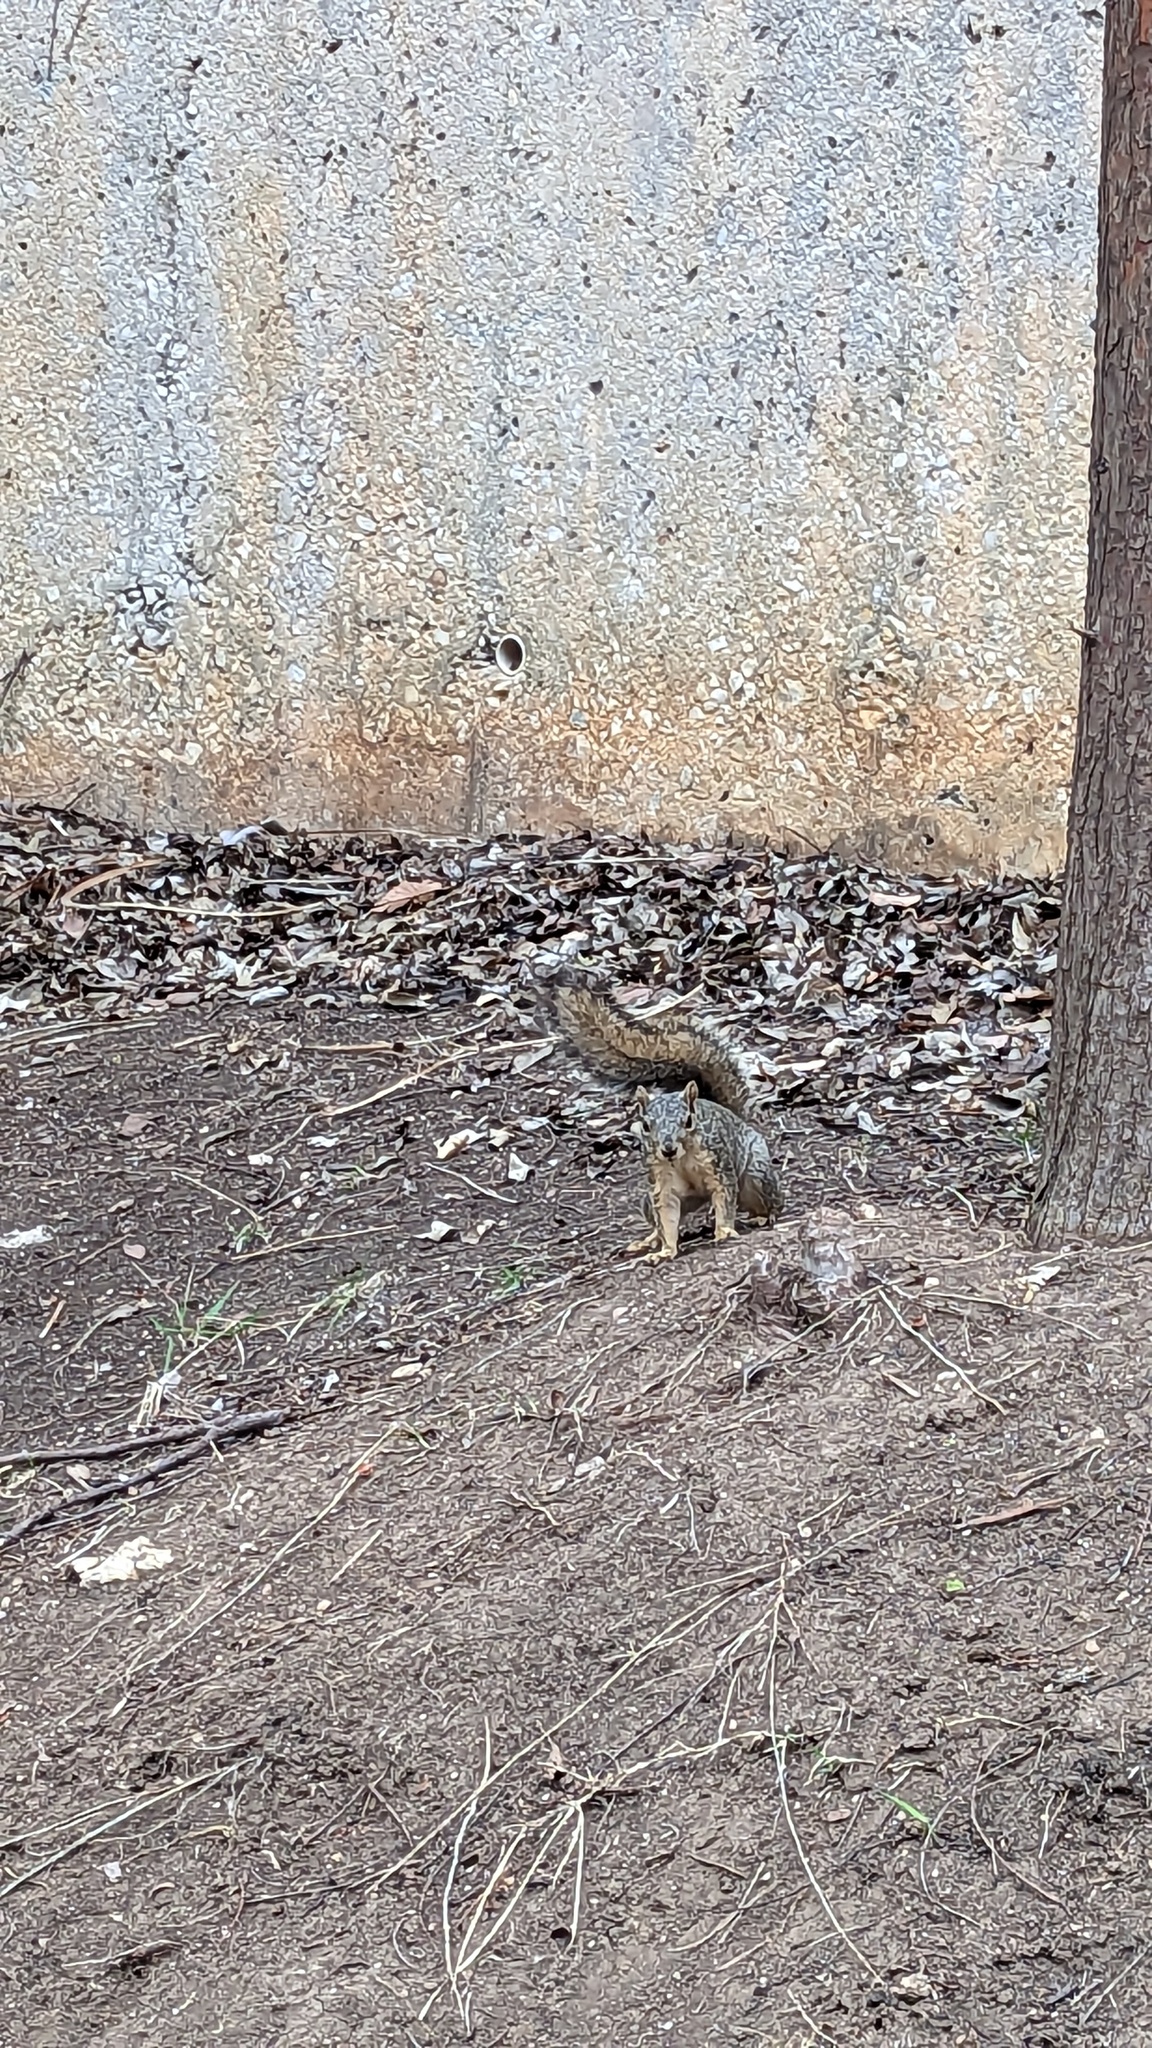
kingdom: Animalia
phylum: Chordata
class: Mammalia
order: Rodentia
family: Sciuridae
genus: Sciurus
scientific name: Sciurus niger
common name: Fox squirrel
